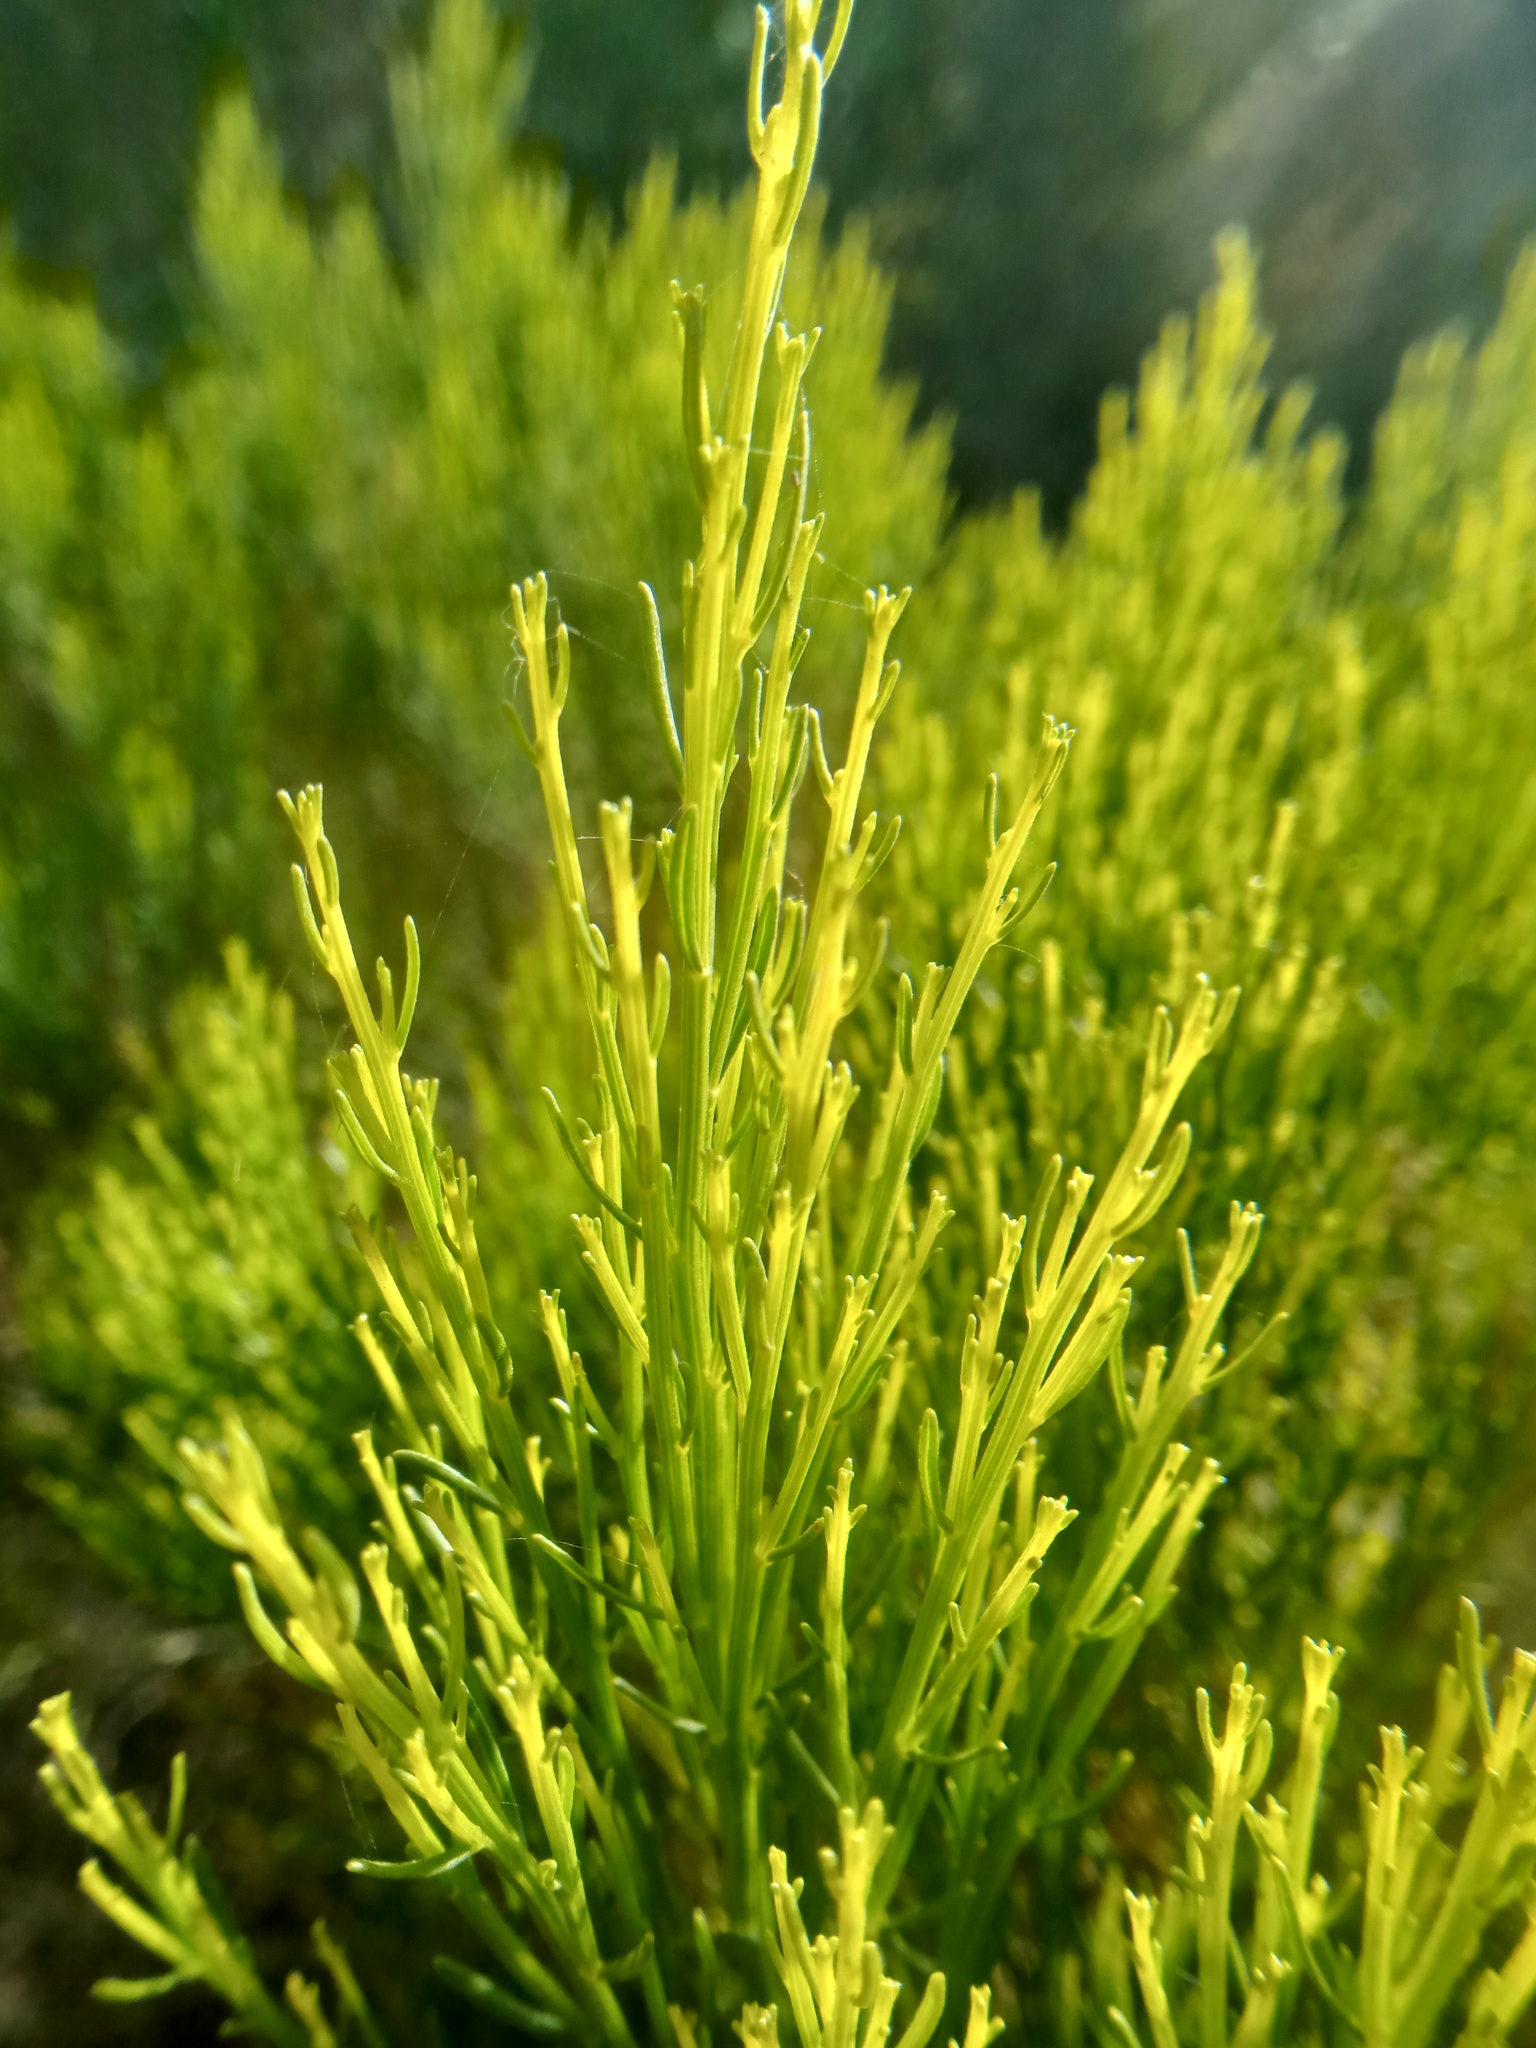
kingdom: Plantae
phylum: Tracheophyta
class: Magnoliopsida
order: Asterales
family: Asteraceae
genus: Baccharis
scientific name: Baccharis sarothroides
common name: Desert-broom
